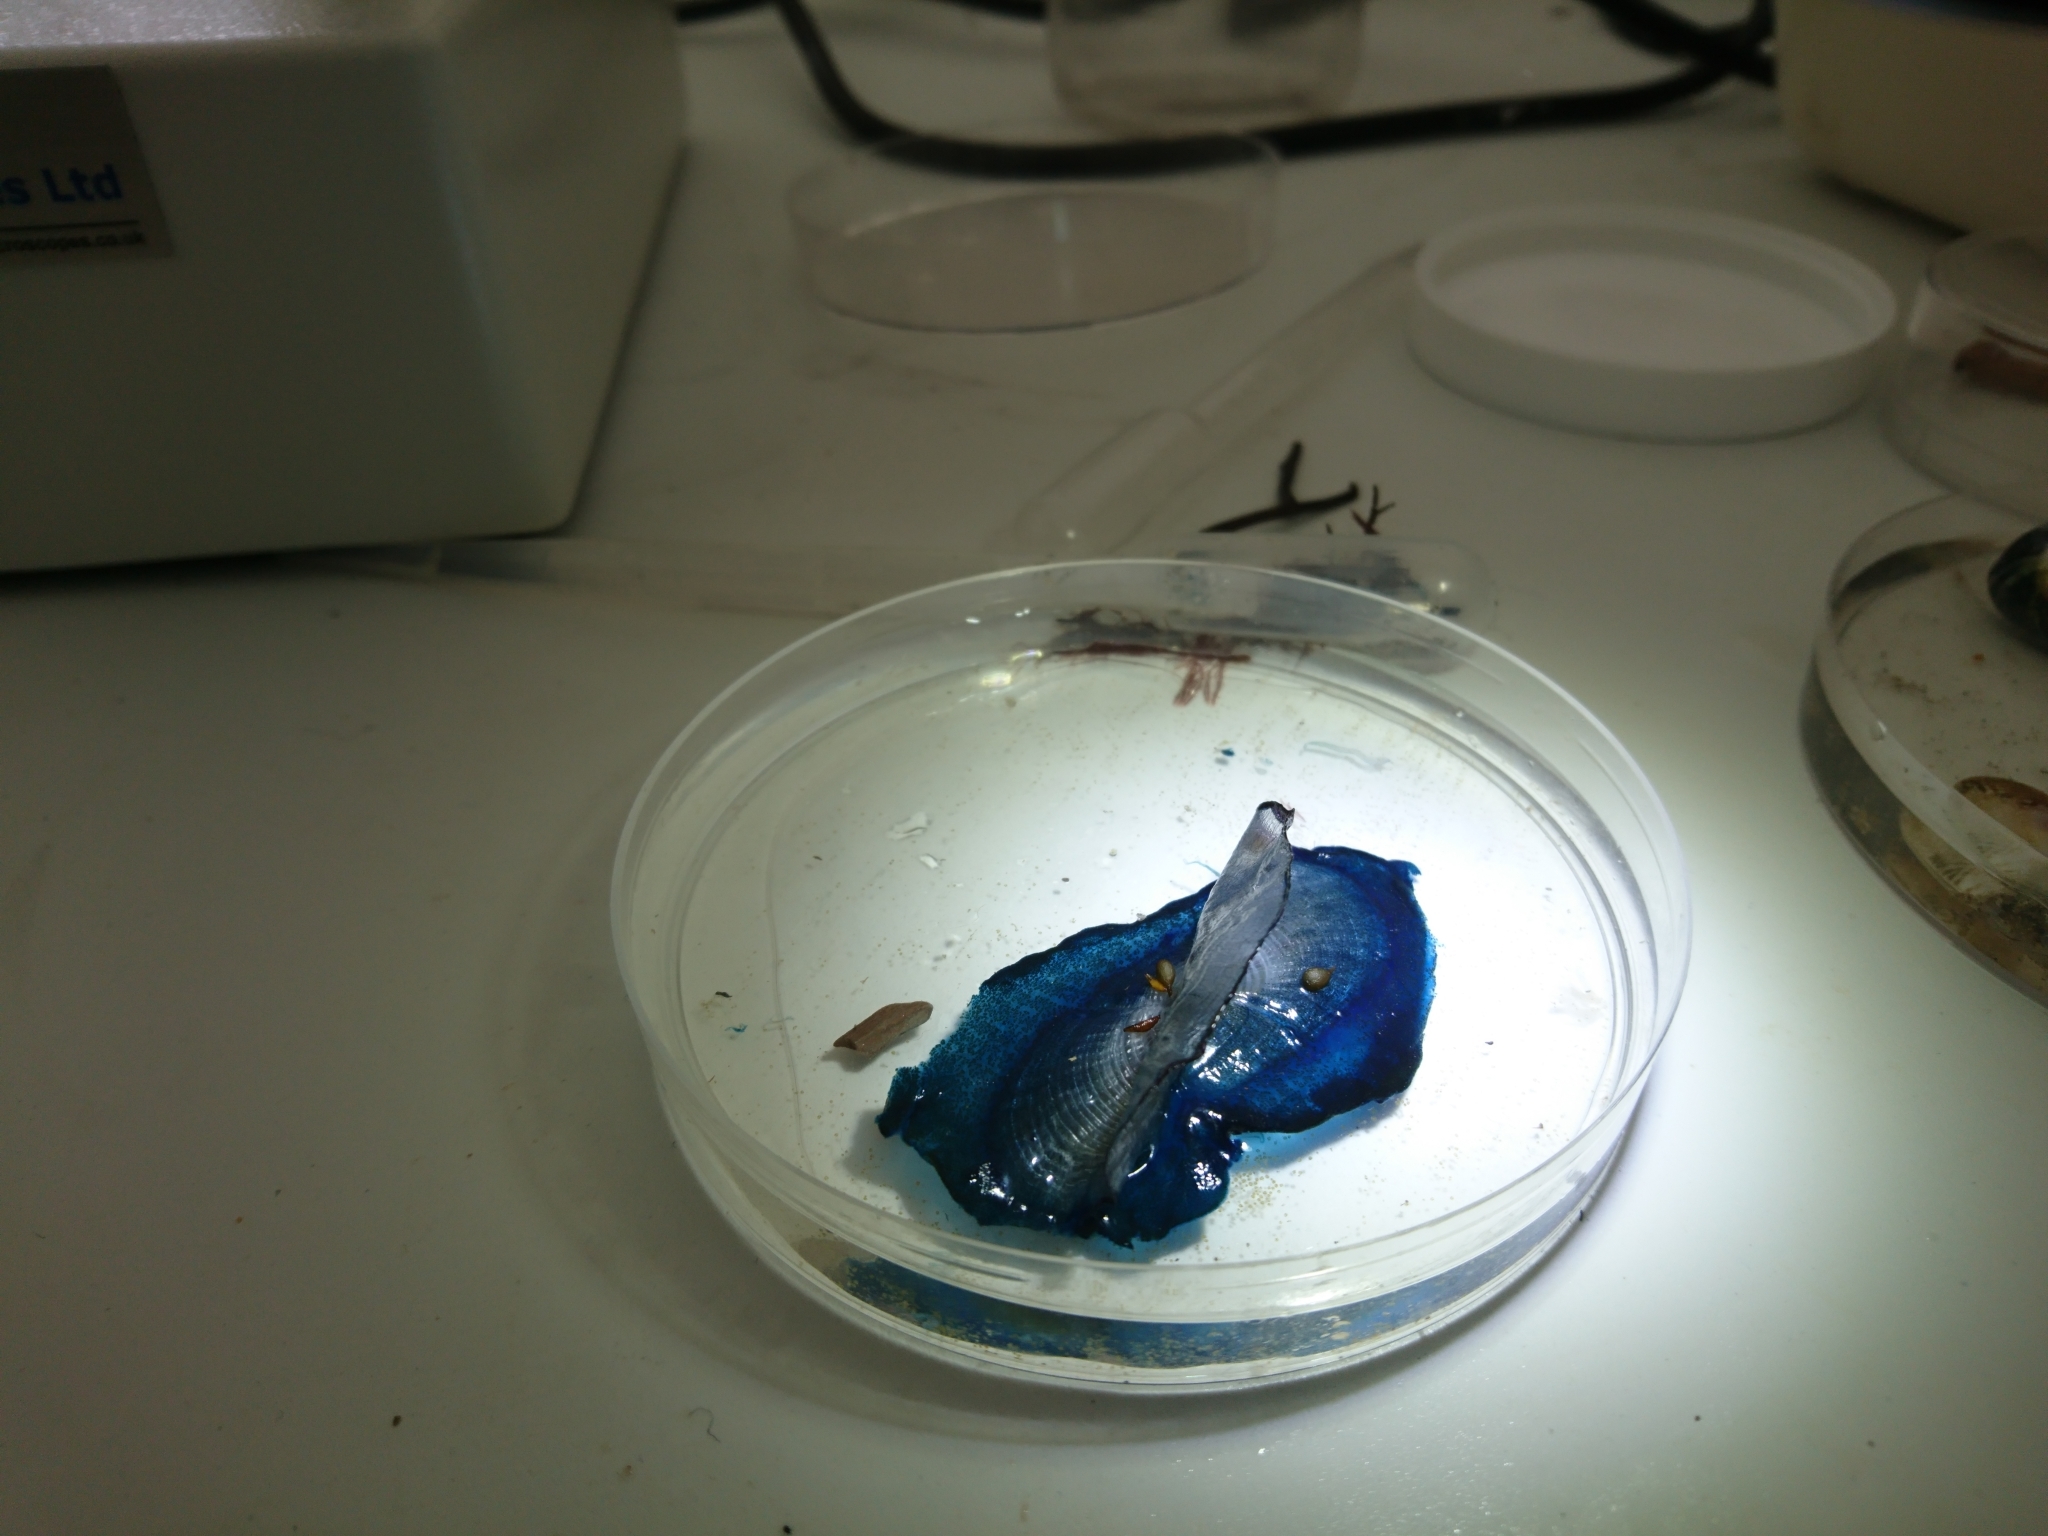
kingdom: Animalia
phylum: Cnidaria
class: Hydrozoa
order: Anthoathecata
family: Porpitidae
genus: Velella
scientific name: Velella velella
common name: By-the-wind-sailor
